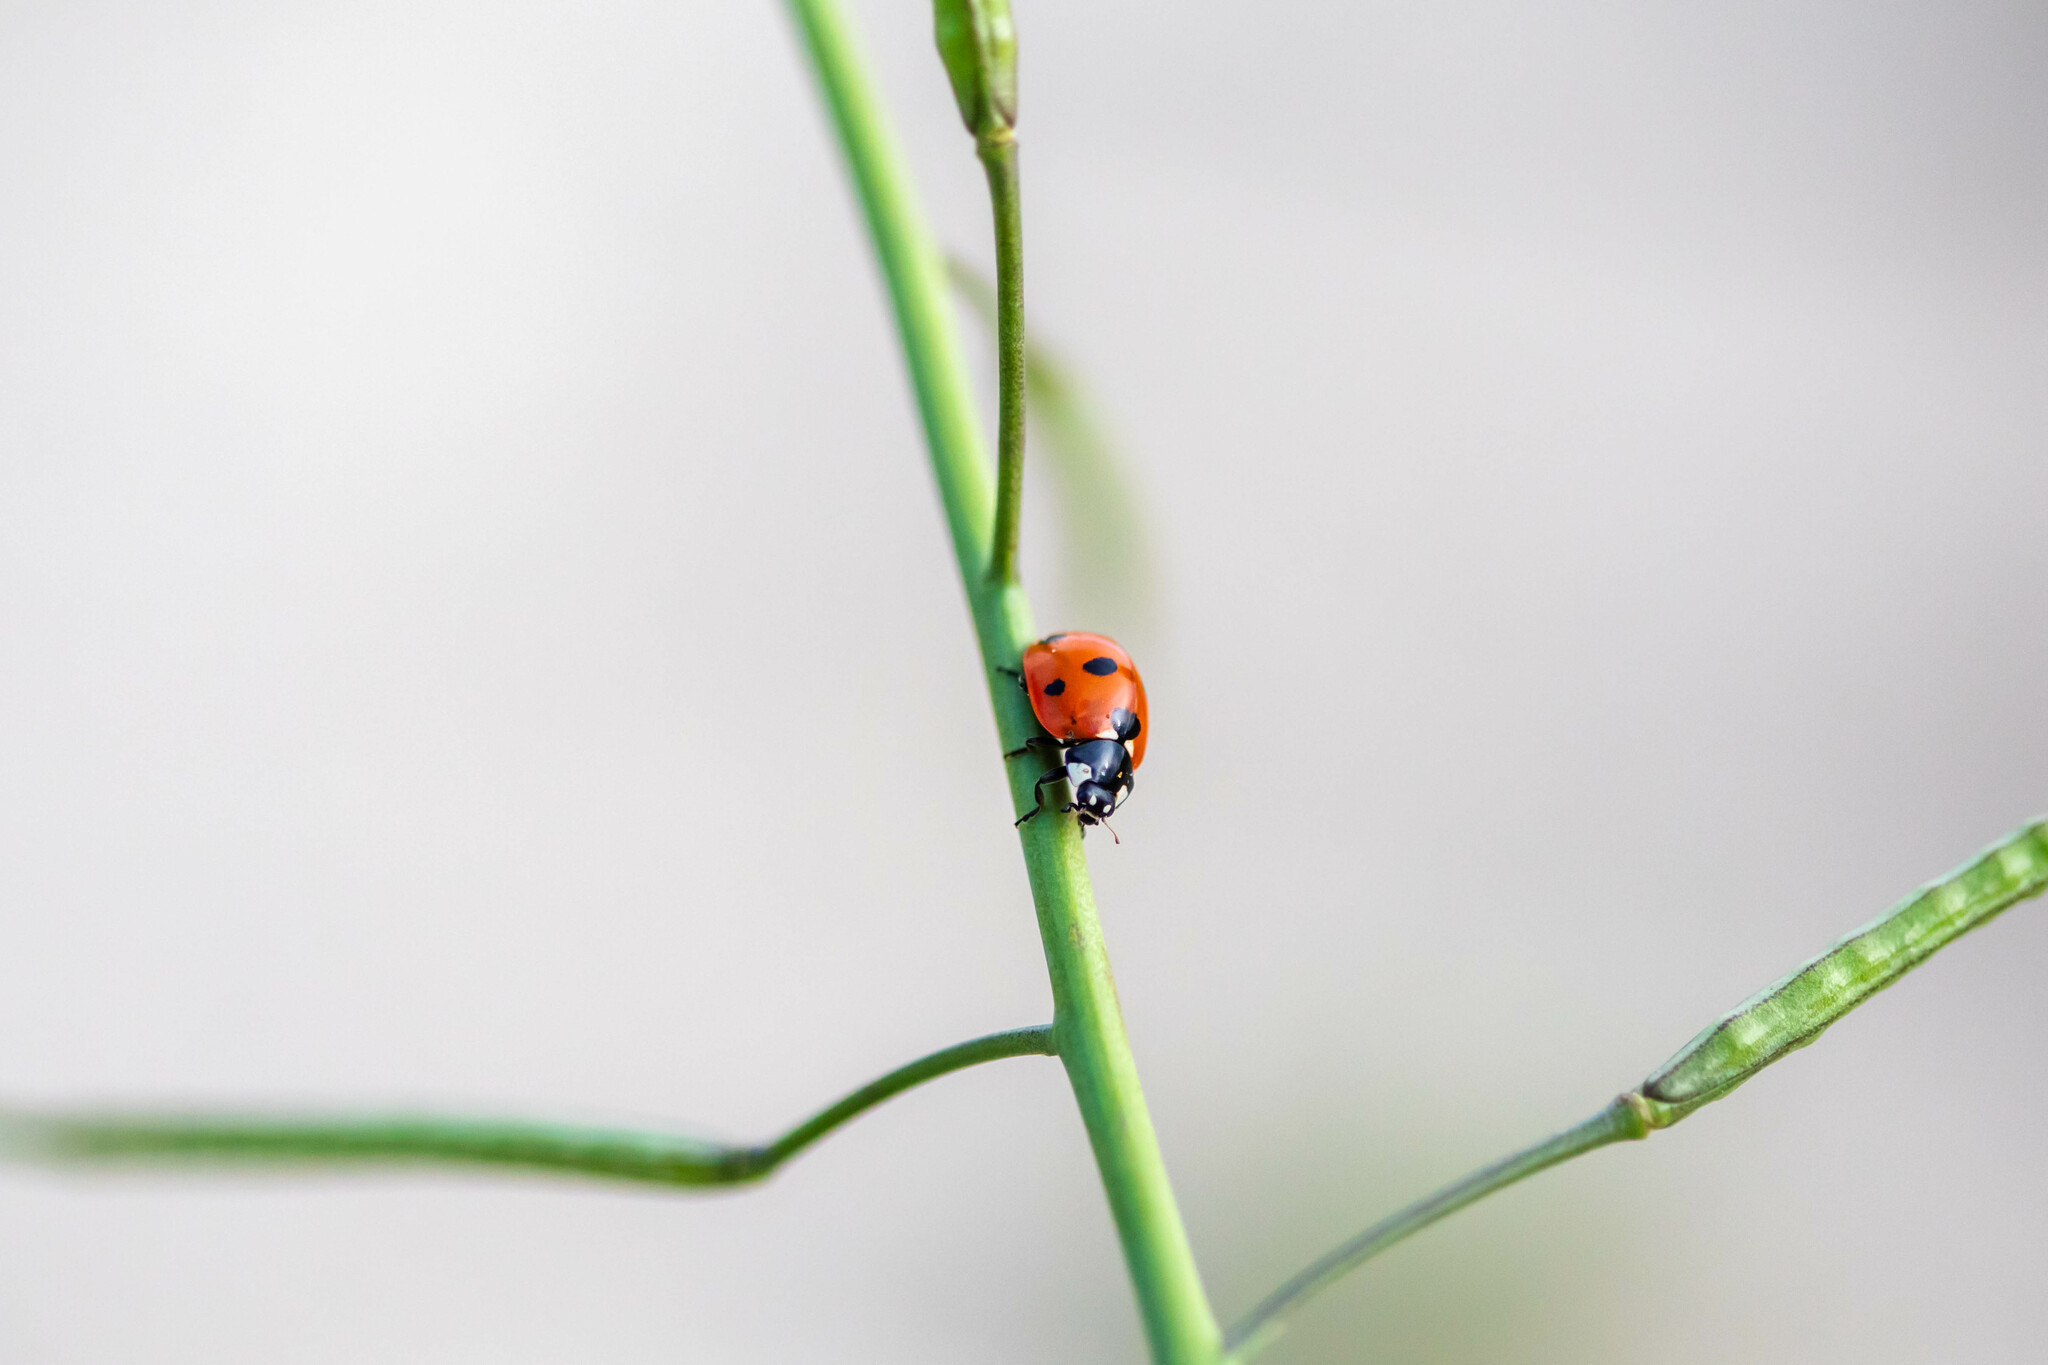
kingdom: Animalia
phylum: Arthropoda
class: Insecta
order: Coleoptera
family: Coccinellidae
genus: Coccinella
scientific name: Coccinella septempunctata
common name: Sevenspotted lady beetle
